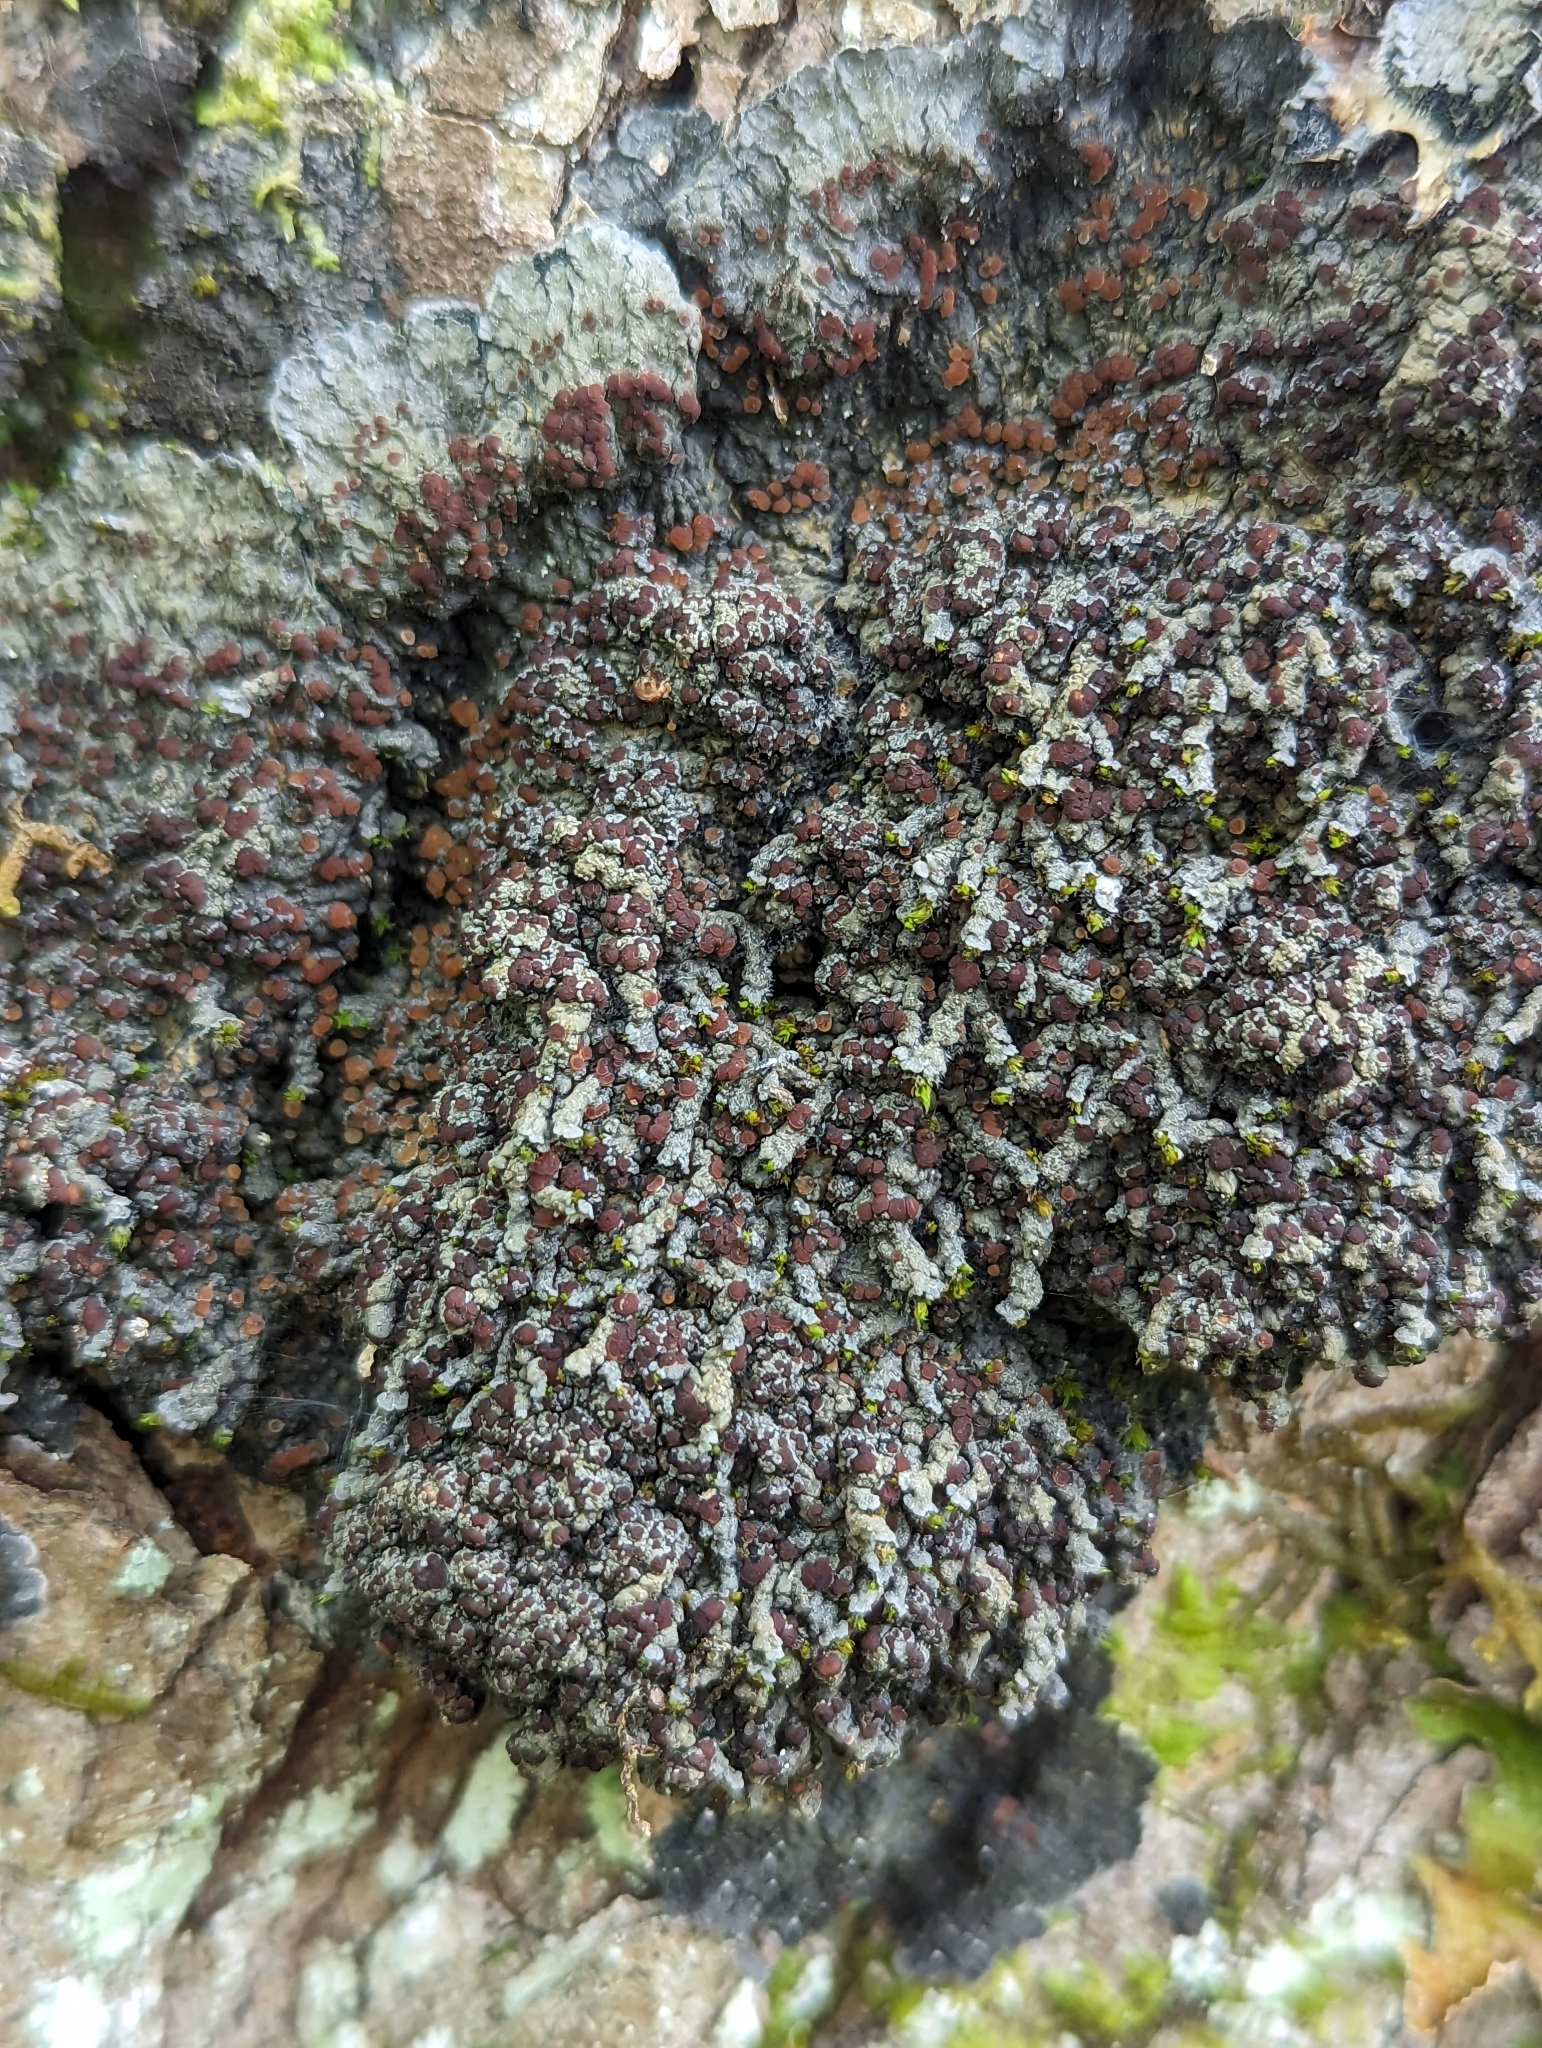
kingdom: Fungi
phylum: Ascomycota
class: Lecanoromycetes
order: Peltigerales
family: Pannariaceae
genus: Pectenia
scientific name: Pectenia plumbea
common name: Bladder stalks
